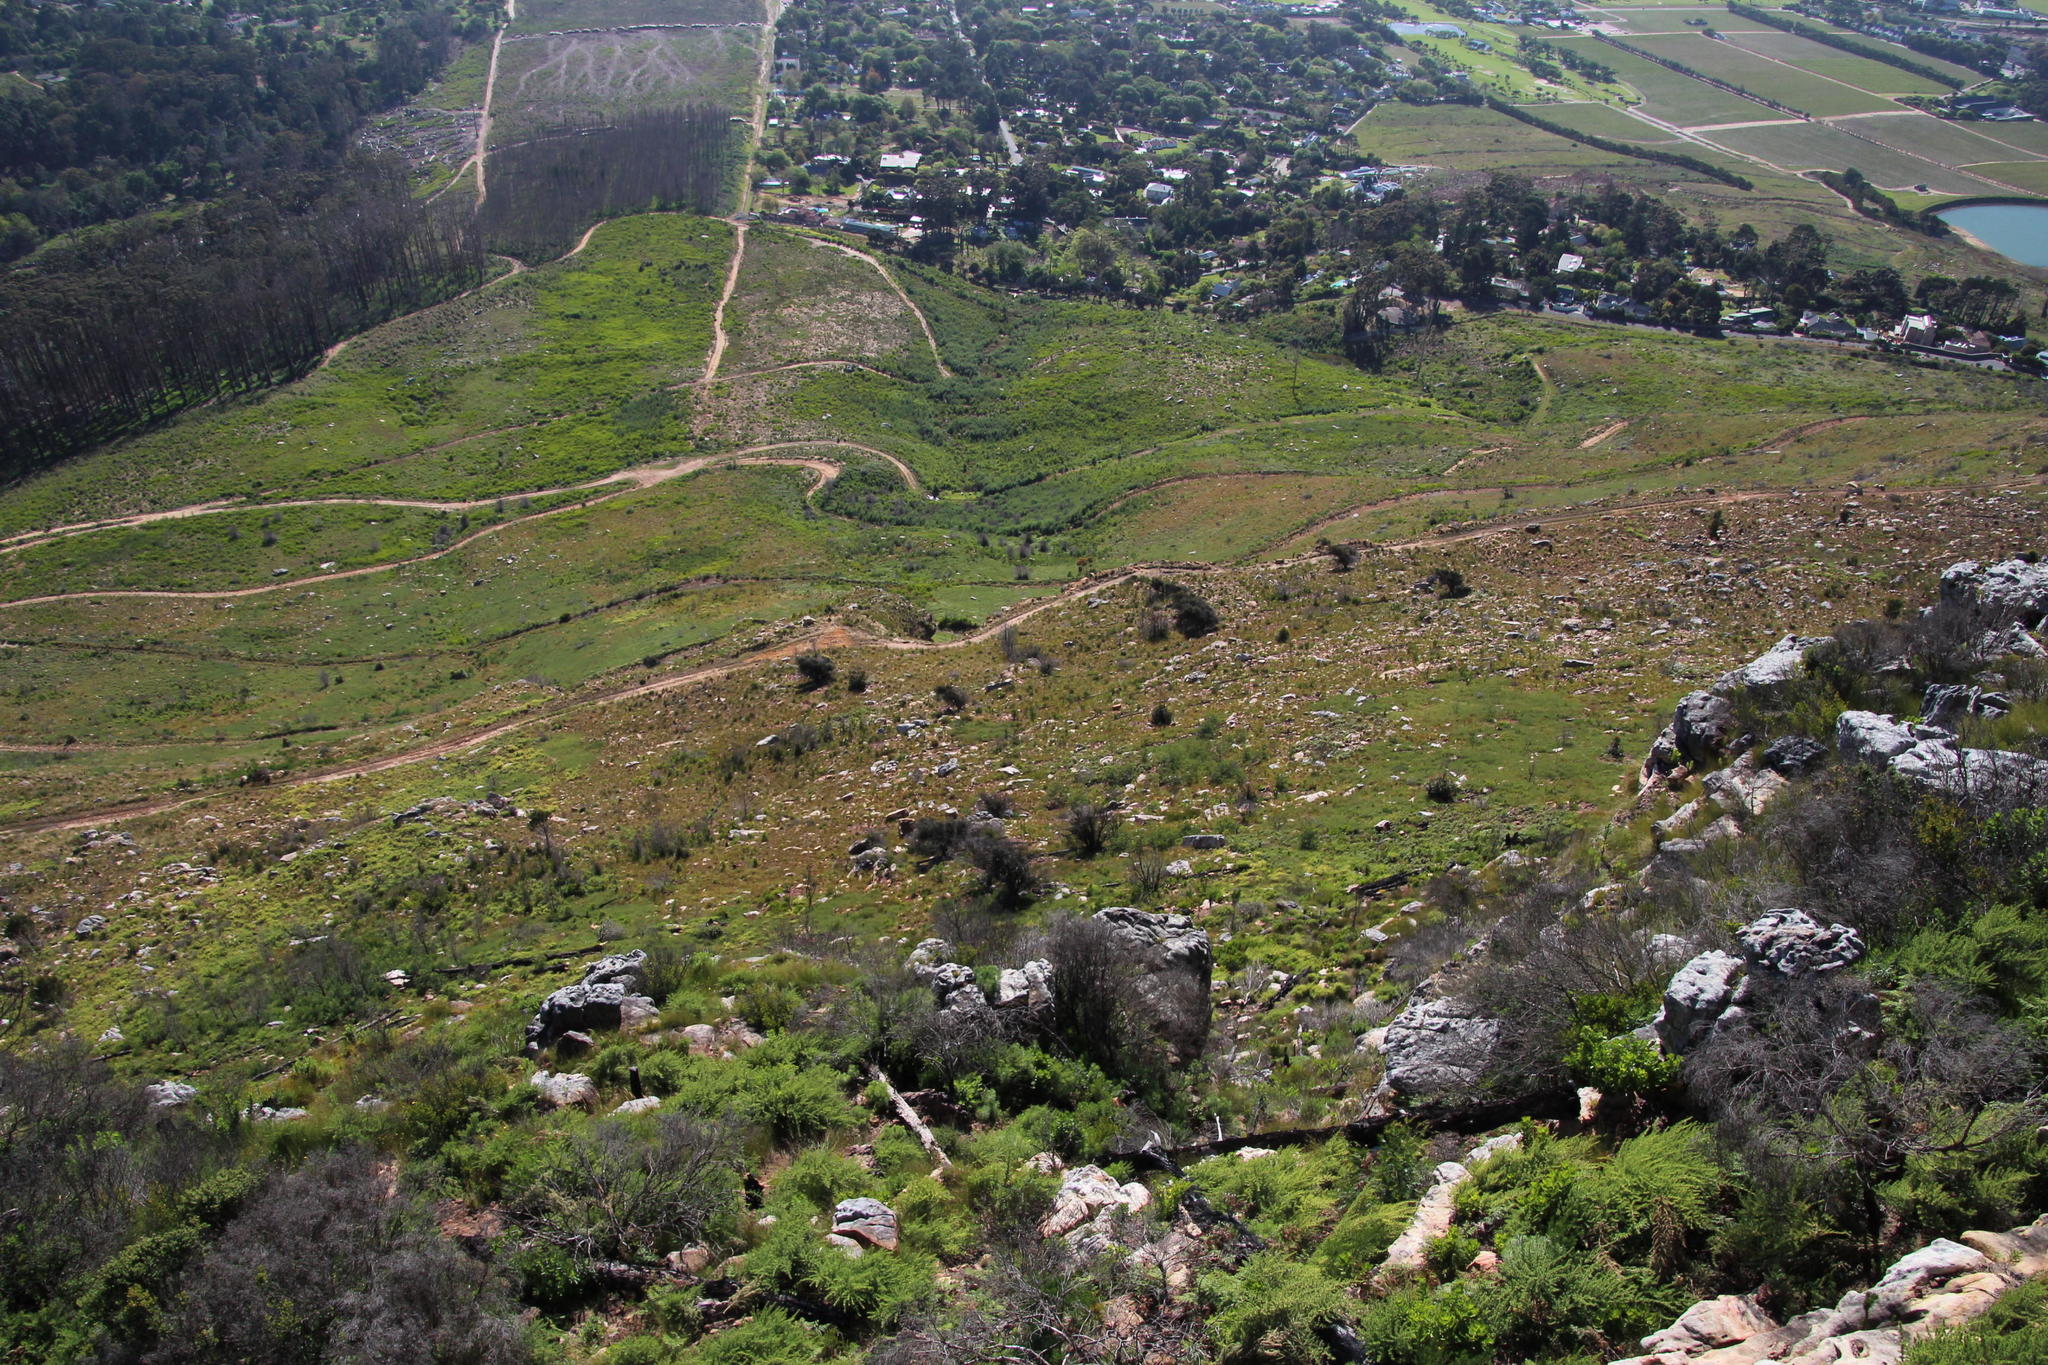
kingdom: Plantae
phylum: Tracheophyta
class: Magnoliopsida
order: Fagales
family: Fagaceae
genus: Quercus
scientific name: Quercus suber
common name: Cork oak
